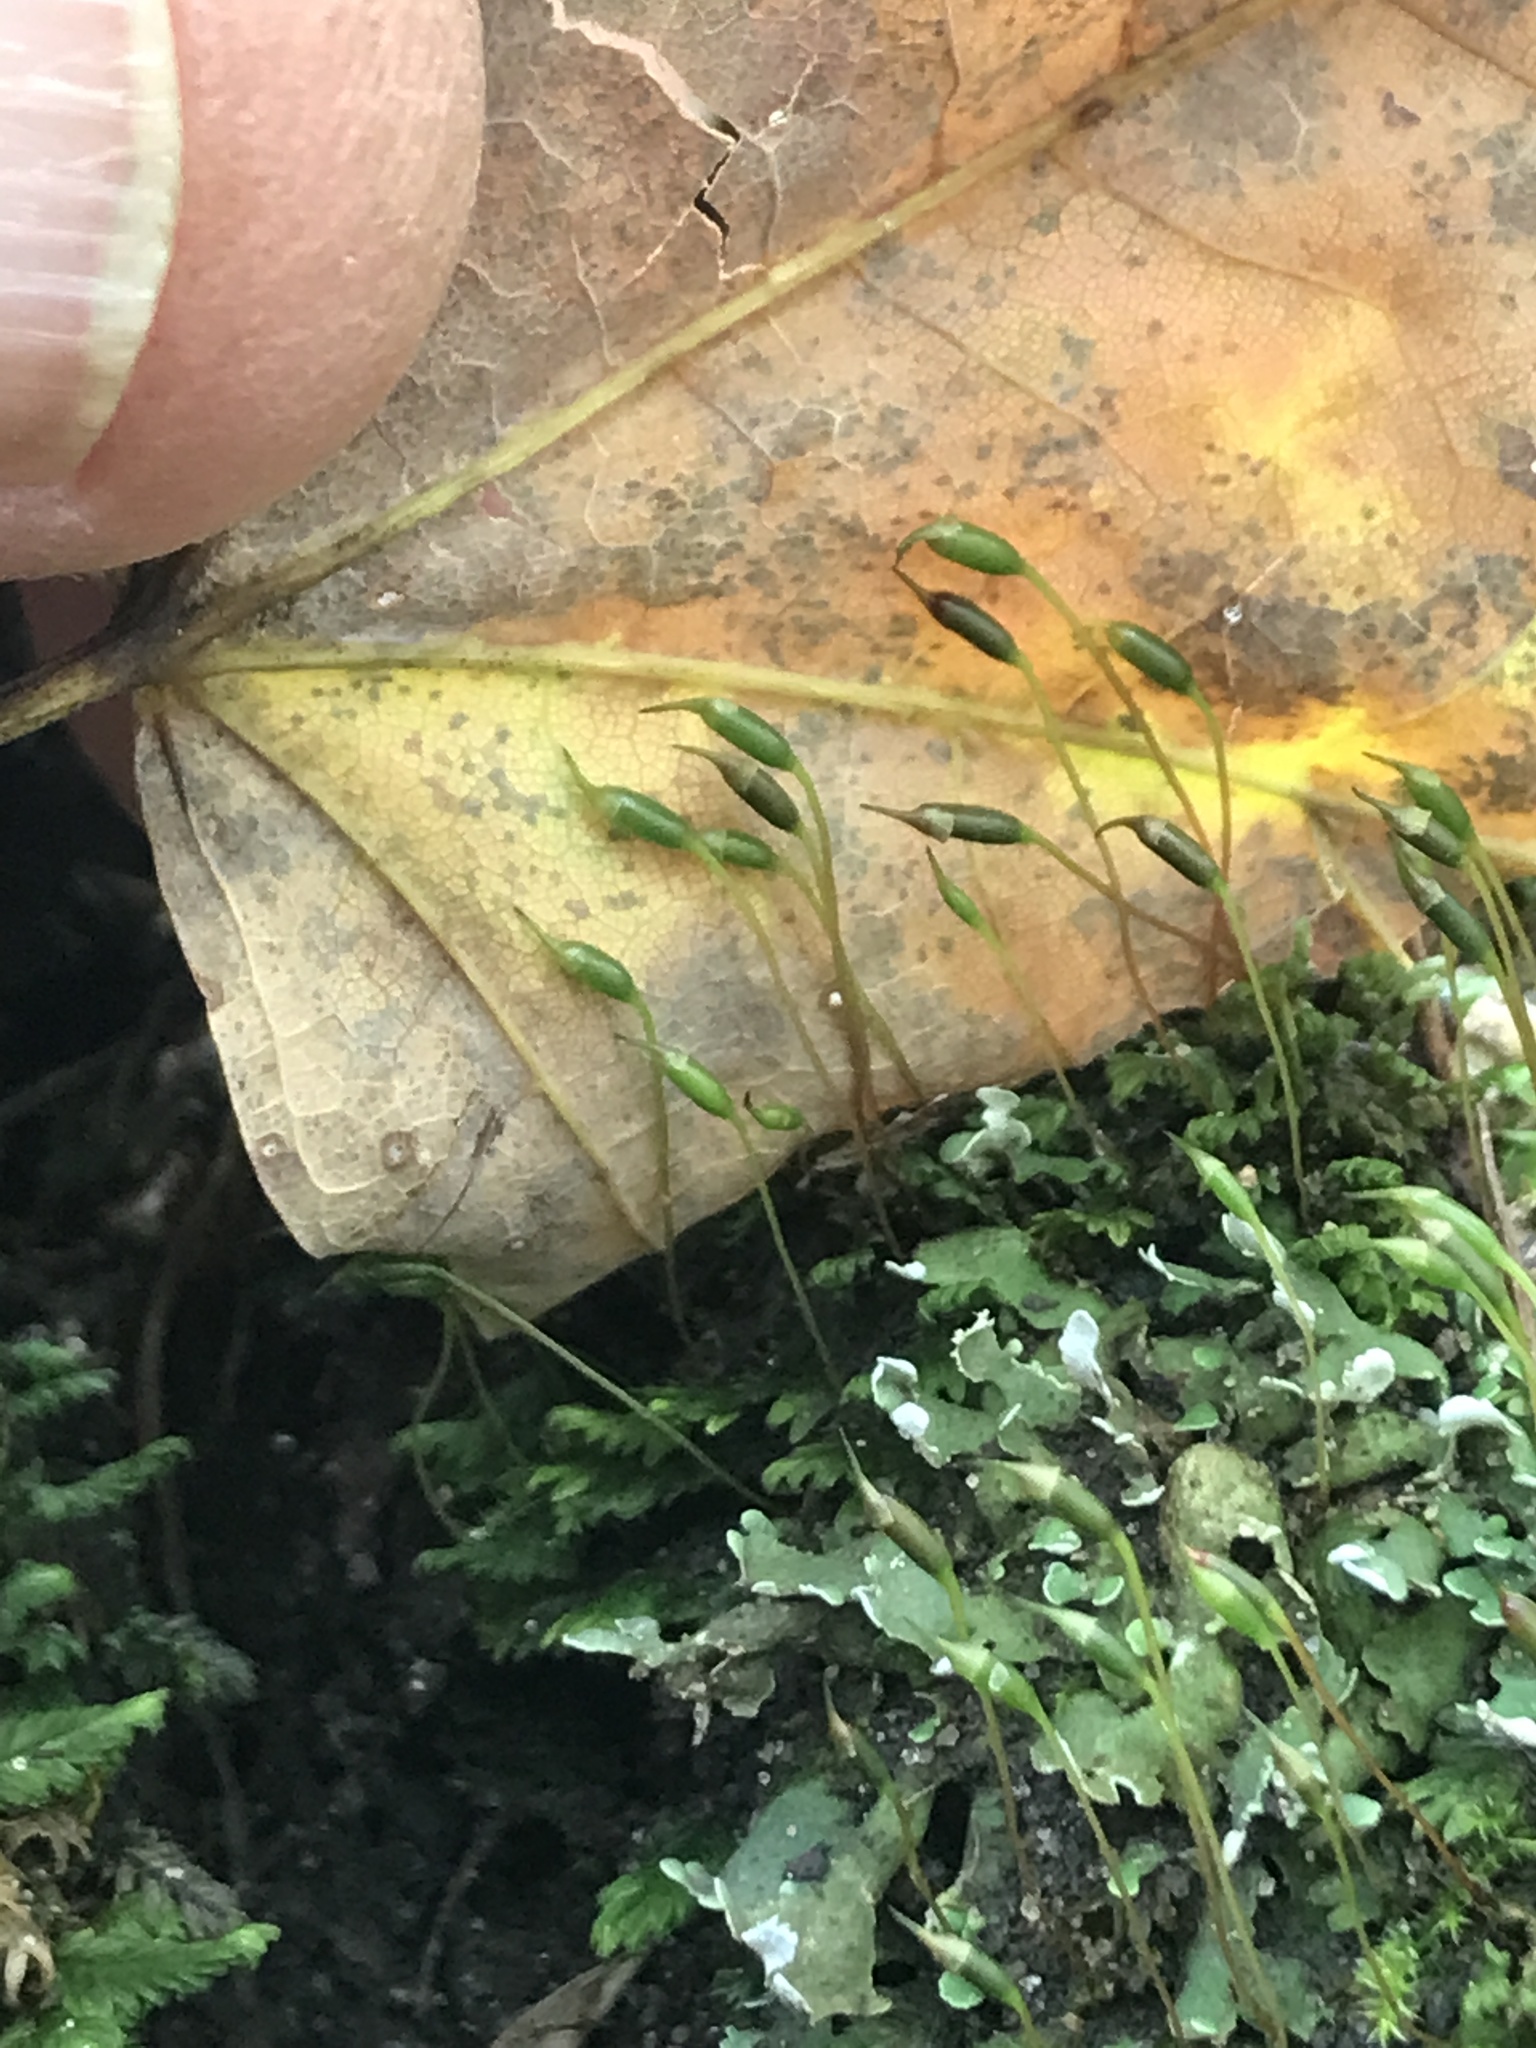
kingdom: Plantae
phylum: Bryophyta
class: Bryopsida
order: Dicranales
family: Fissidentaceae
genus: Fissidens
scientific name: Fissidens taxifolius
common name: Yew-leaved pocket moss
